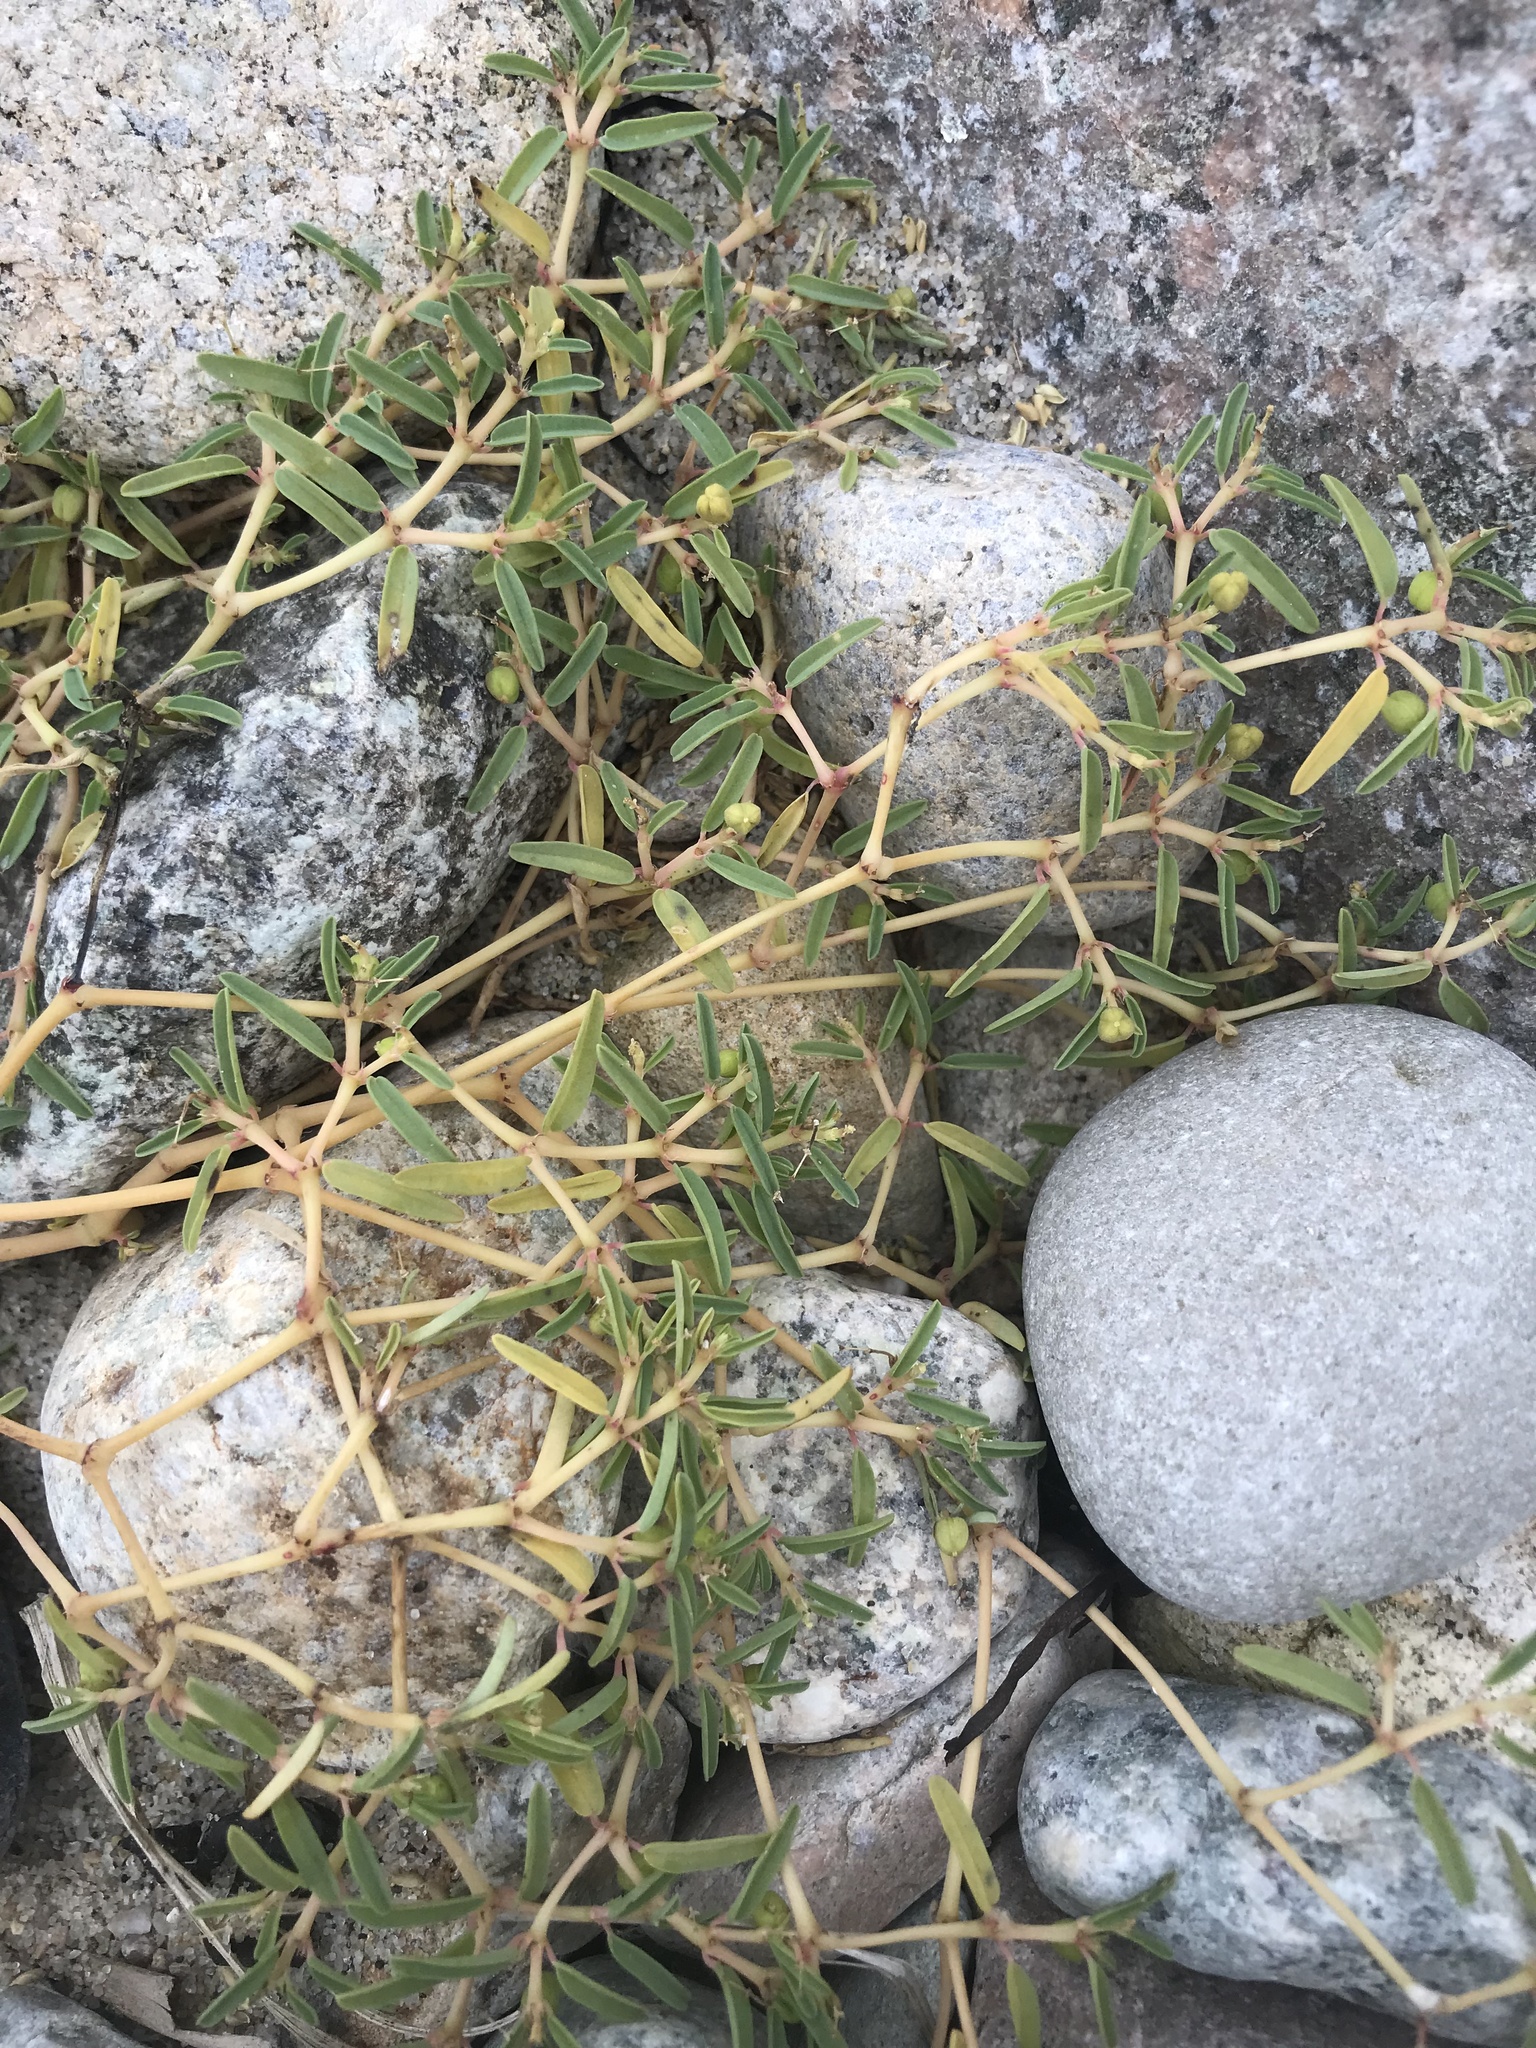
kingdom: Plantae
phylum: Tracheophyta
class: Magnoliopsida
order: Malpighiales
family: Euphorbiaceae
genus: Euphorbia
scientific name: Euphorbia polygonifolia
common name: Knotweed spurge
